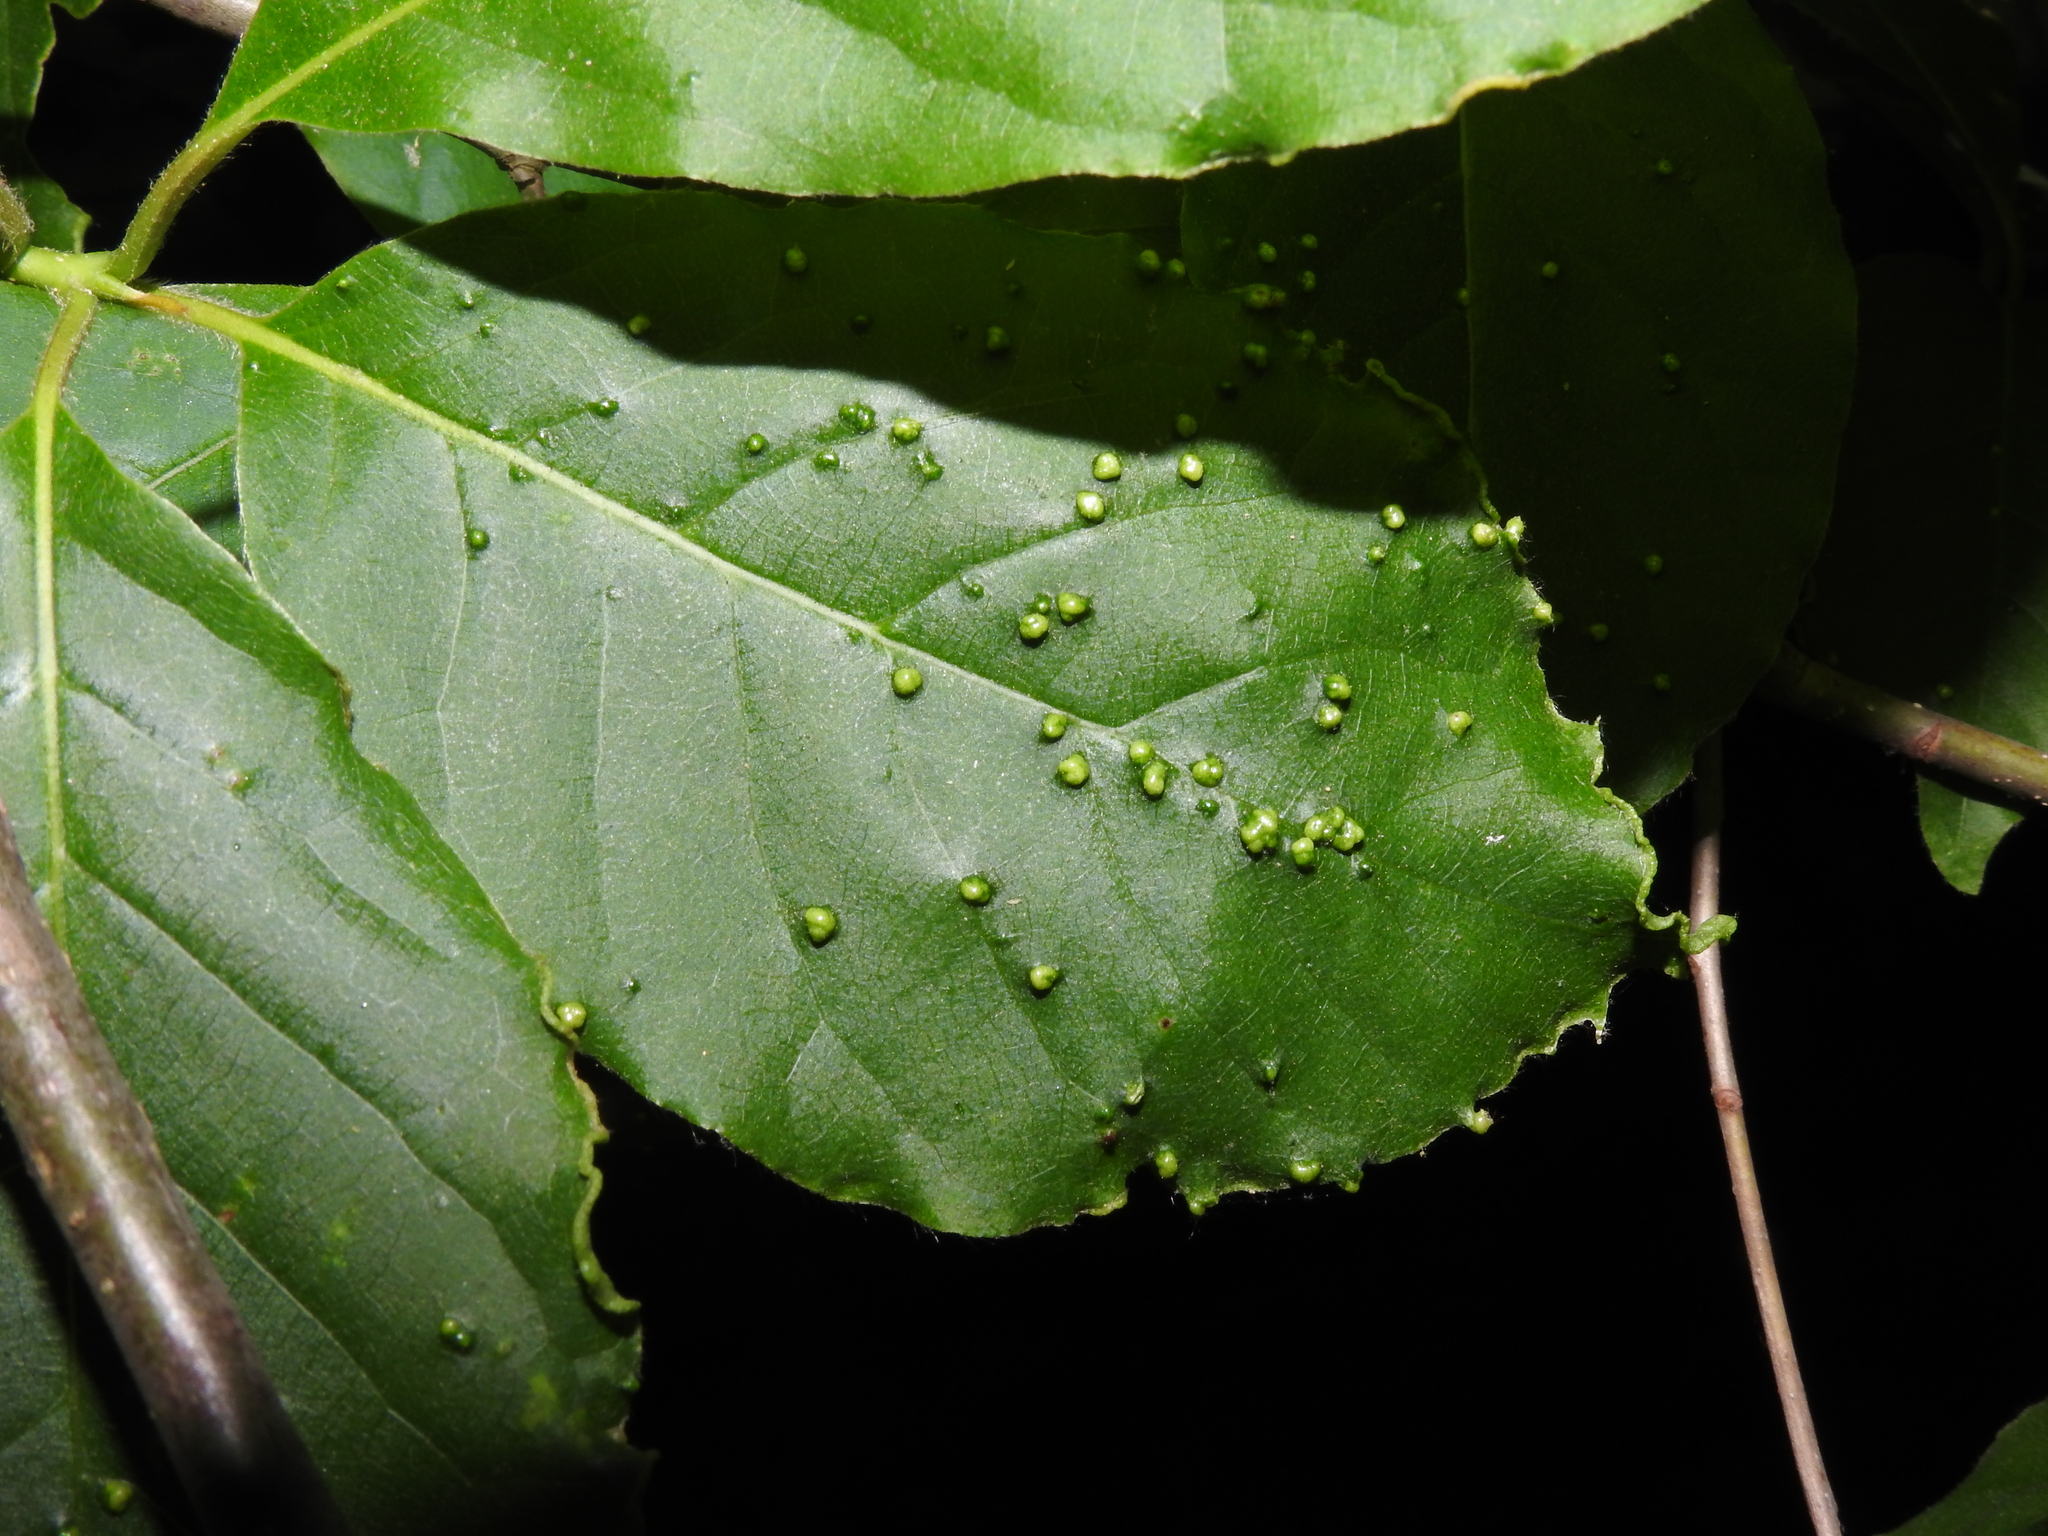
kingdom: Animalia
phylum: Arthropoda
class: Arachnida
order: Trombidiformes
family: Eriophyidae
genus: Aceria
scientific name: Aceria
